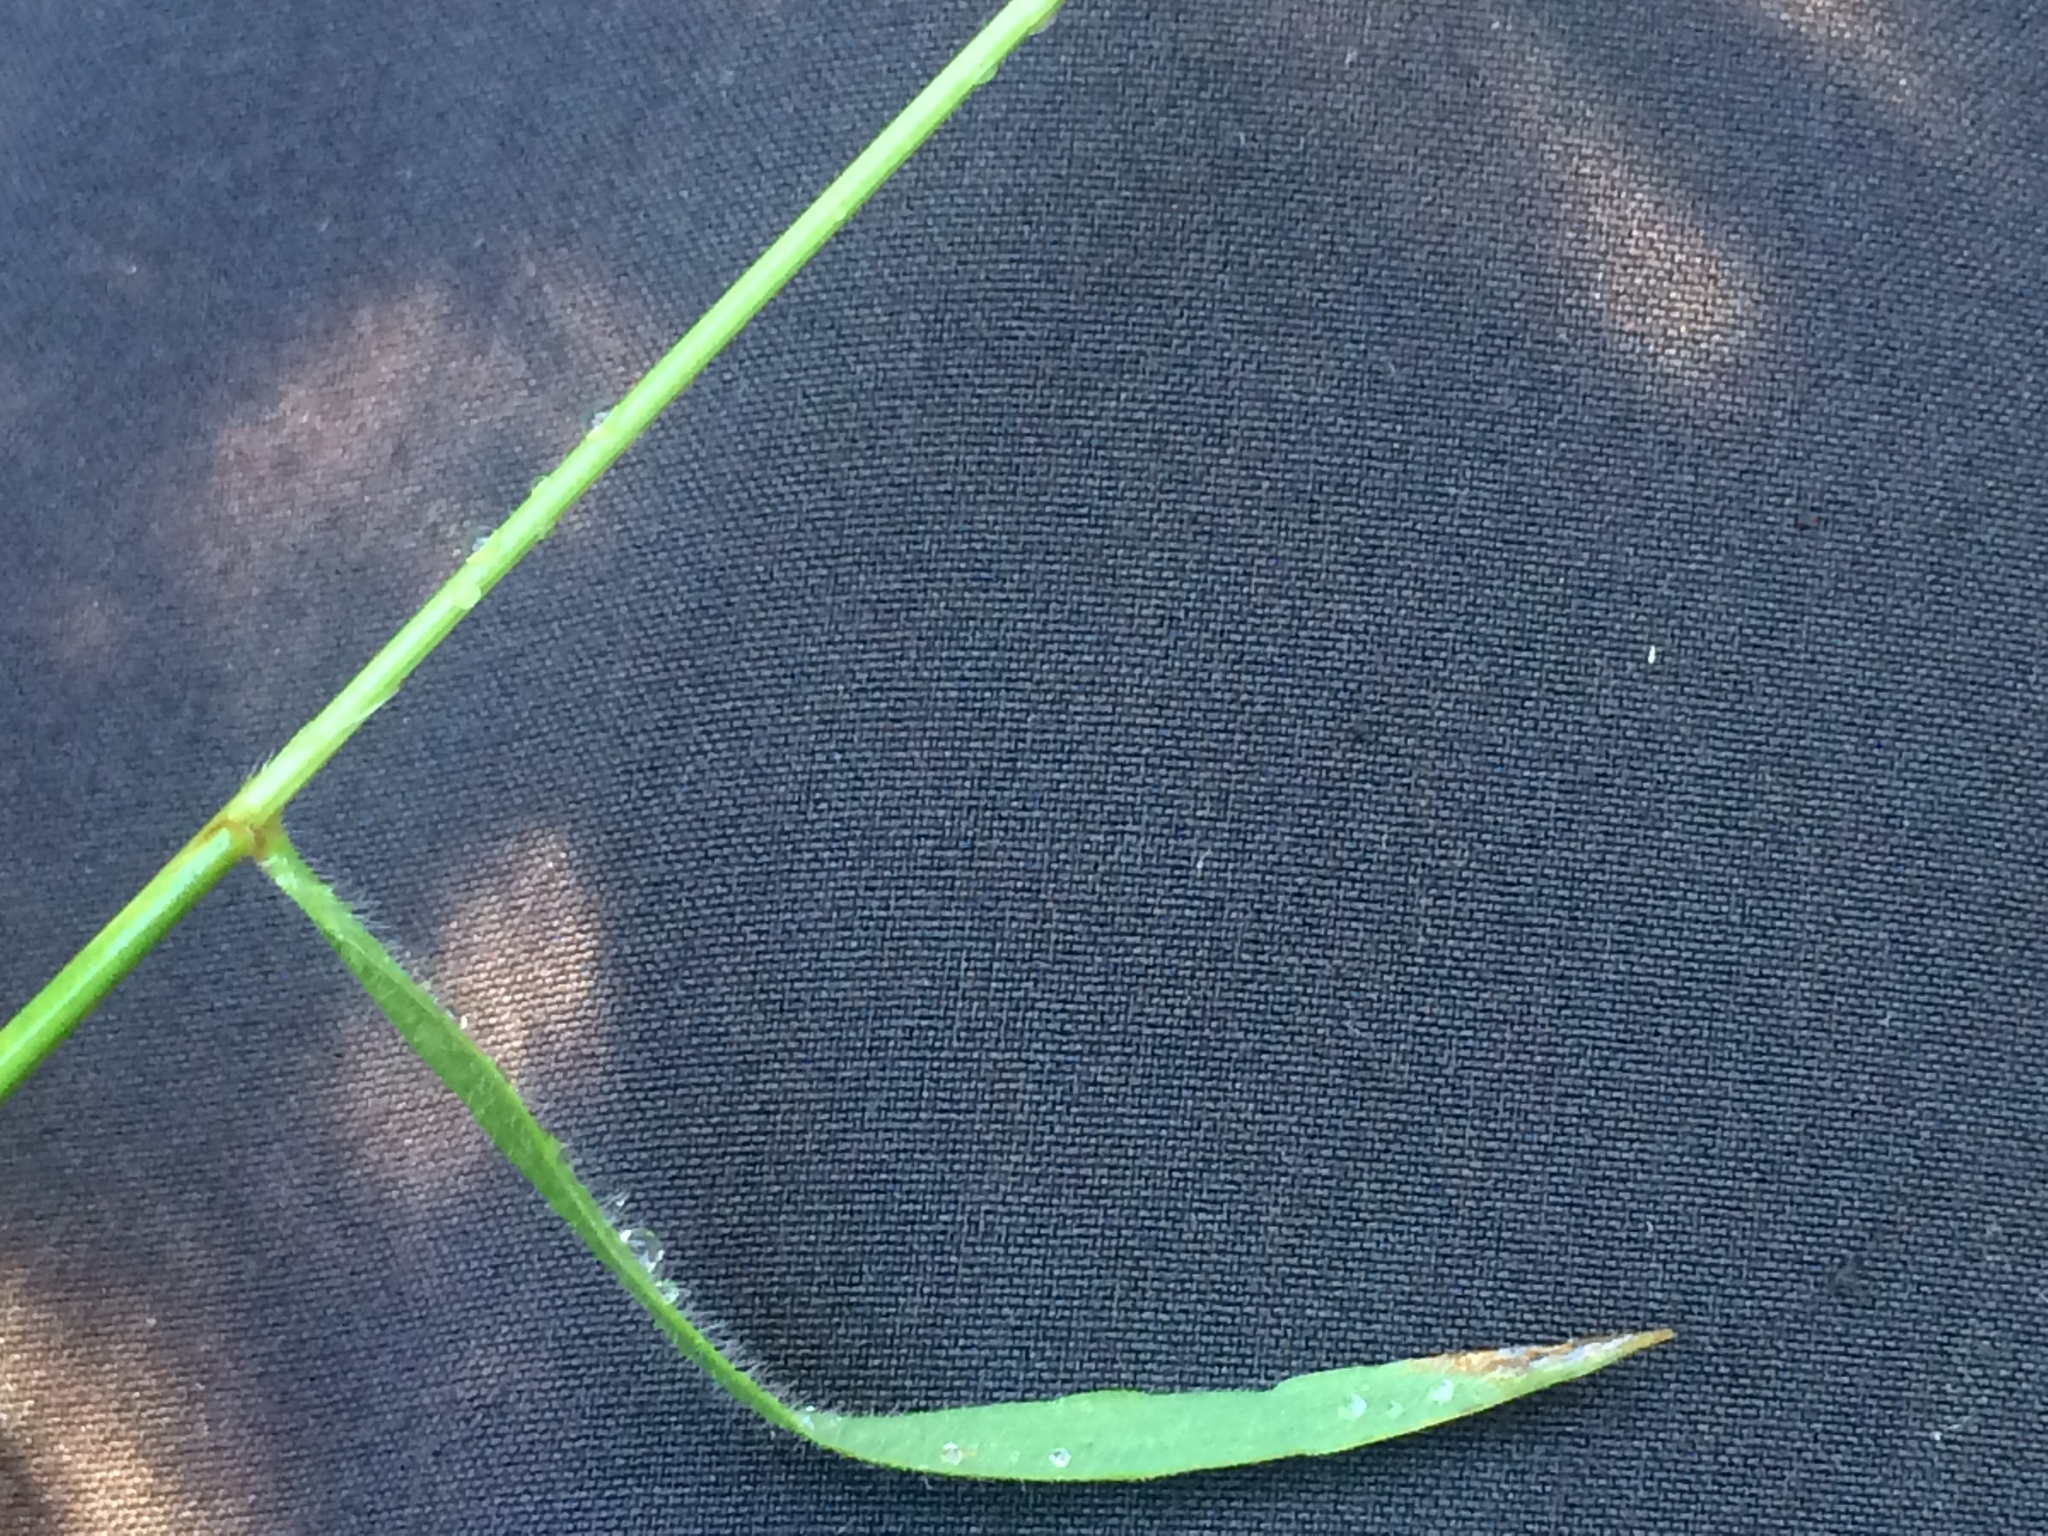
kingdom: Plantae
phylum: Tracheophyta
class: Liliopsida
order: Poales
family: Poaceae
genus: Anthoxanthum
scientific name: Anthoxanthum odoratum
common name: Sweet vernalgrass
